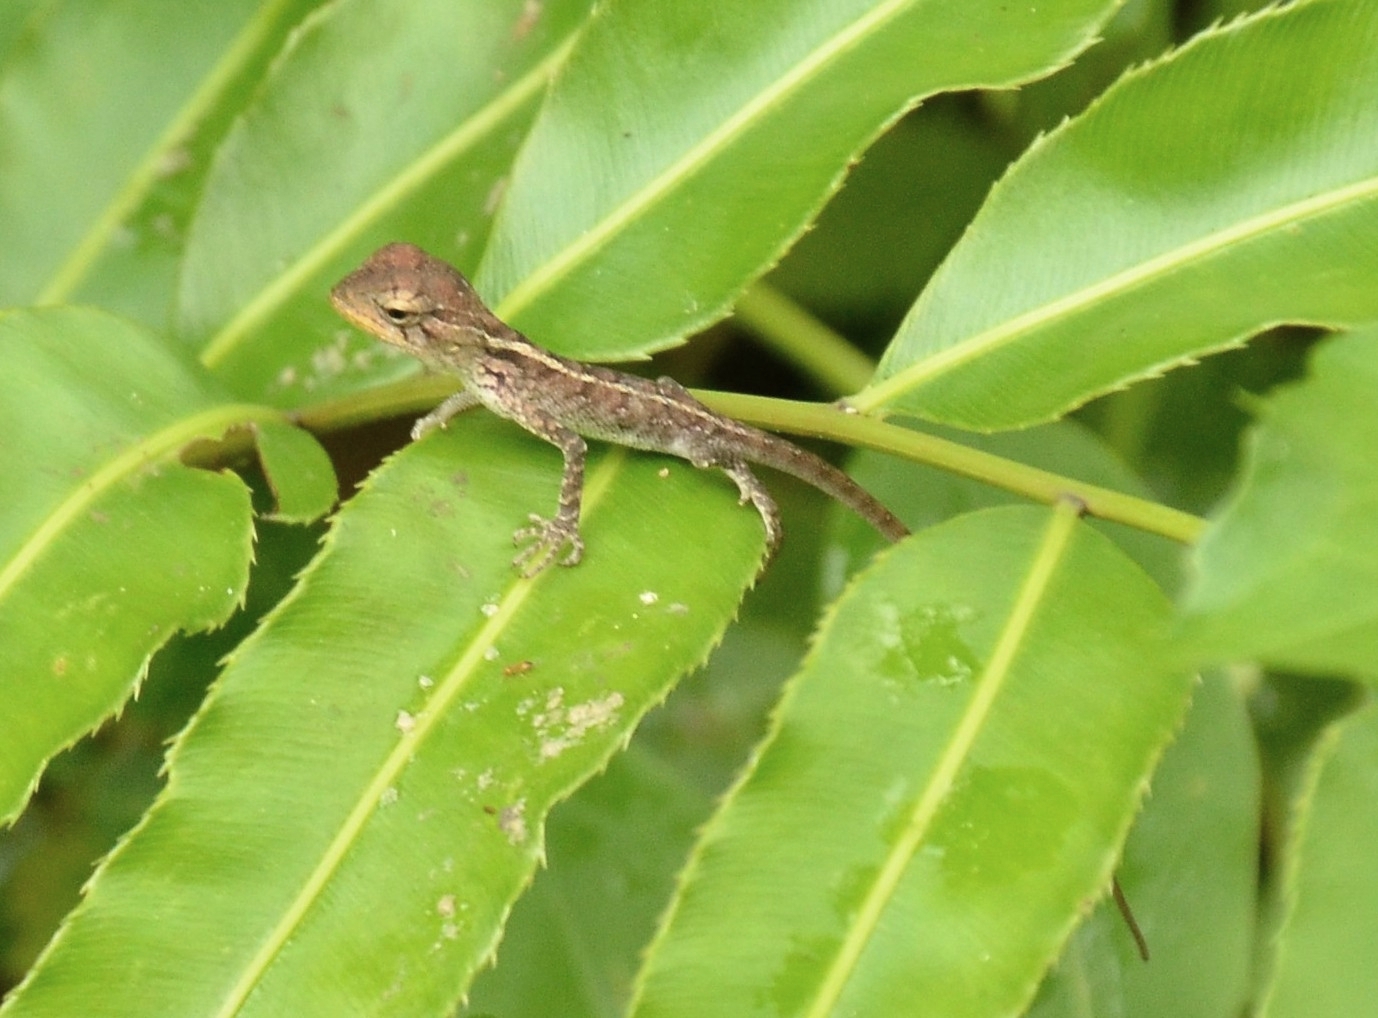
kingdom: Animalia
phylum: Chordata
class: Squamata
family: Agamidae
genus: Calotes
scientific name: Calotes versicolor
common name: Oriental garden lizard
